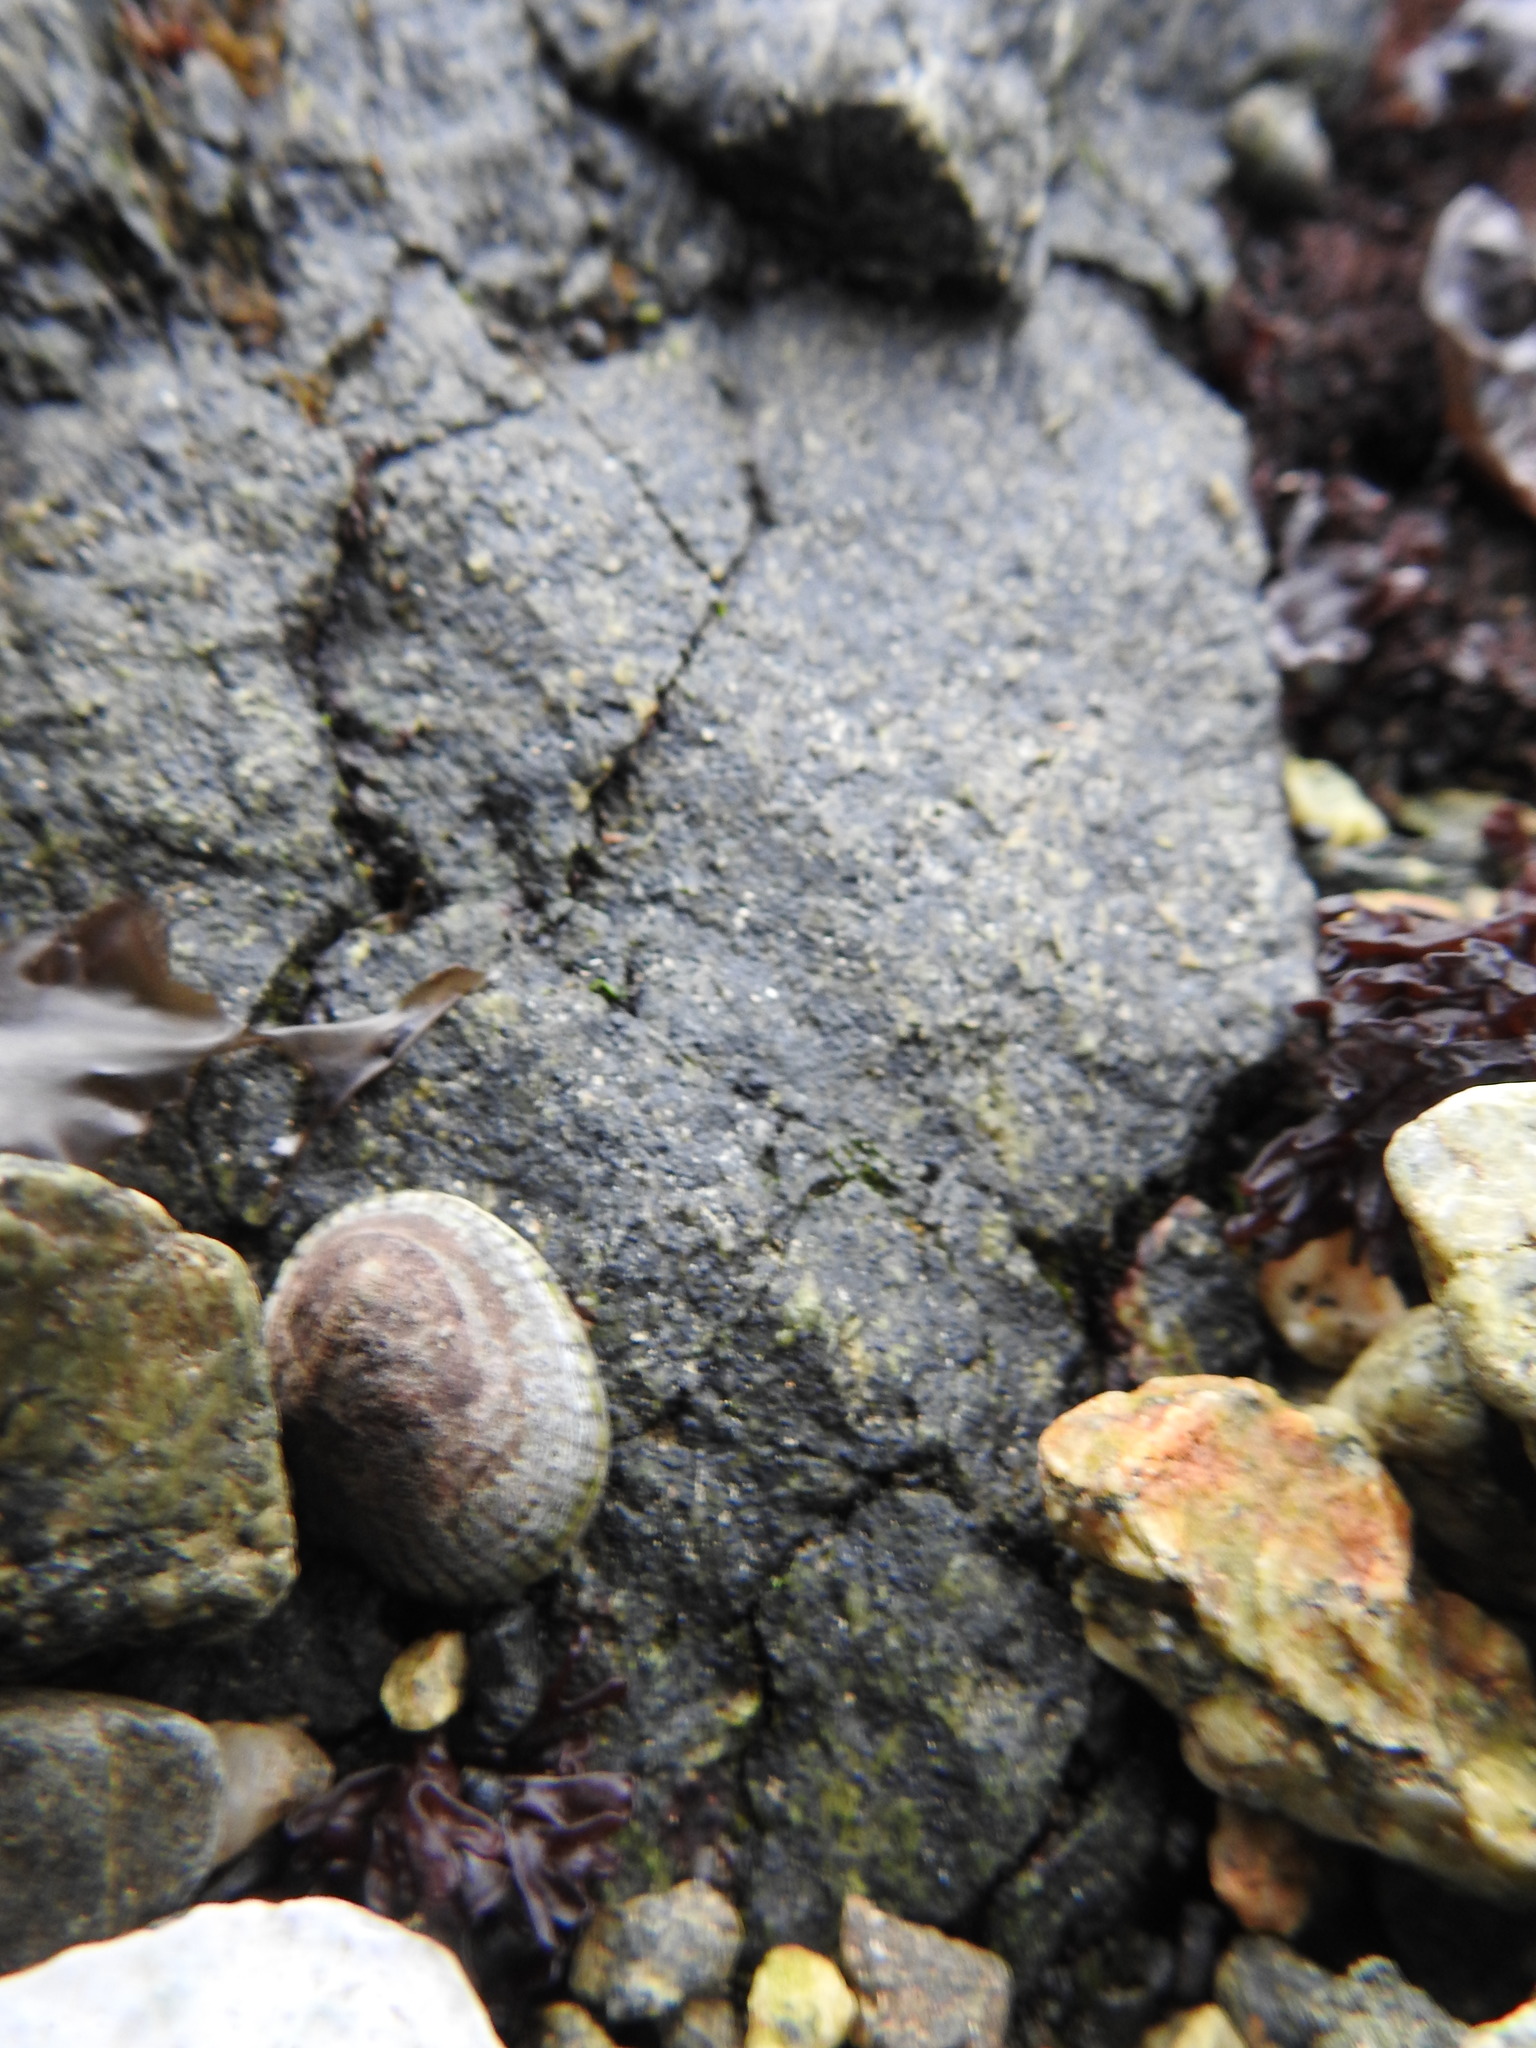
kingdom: Animalia
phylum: Mollusca
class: Gastropoda
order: Siphonariida
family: Siphonariidae
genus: Siphonaria
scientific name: Siphonaria lessonii
